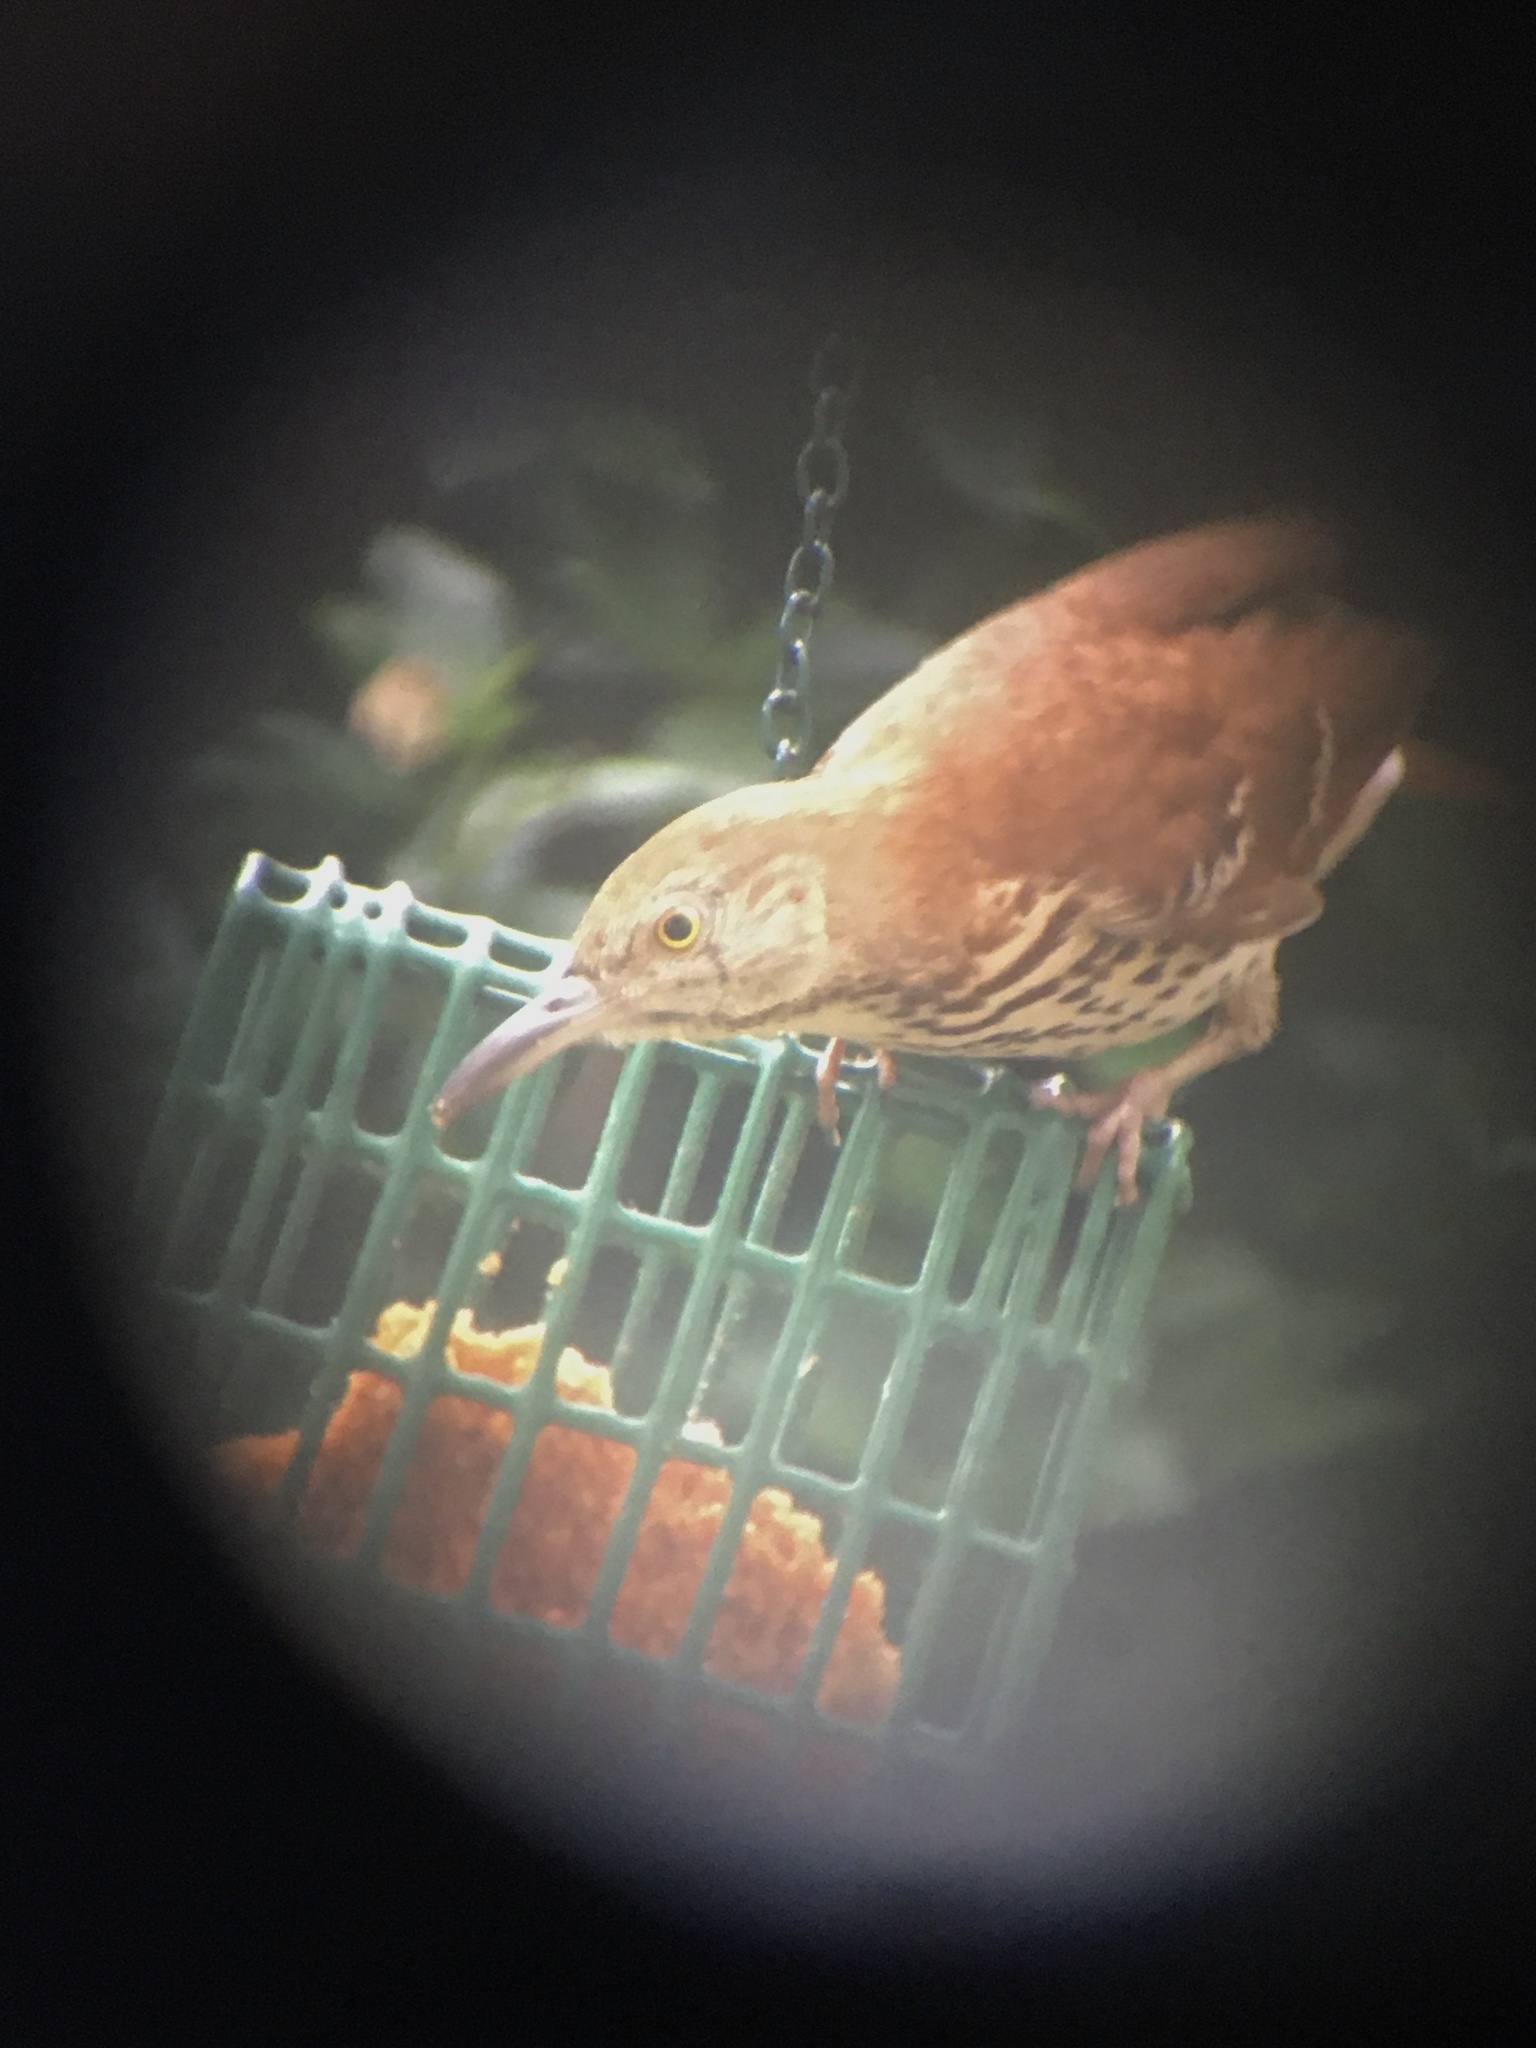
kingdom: Animalia
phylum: Chordata
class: Aves
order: Passeriformes
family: Mimidae
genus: Toxostoma
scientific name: Toxostoma rufum
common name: Brown thrasher
